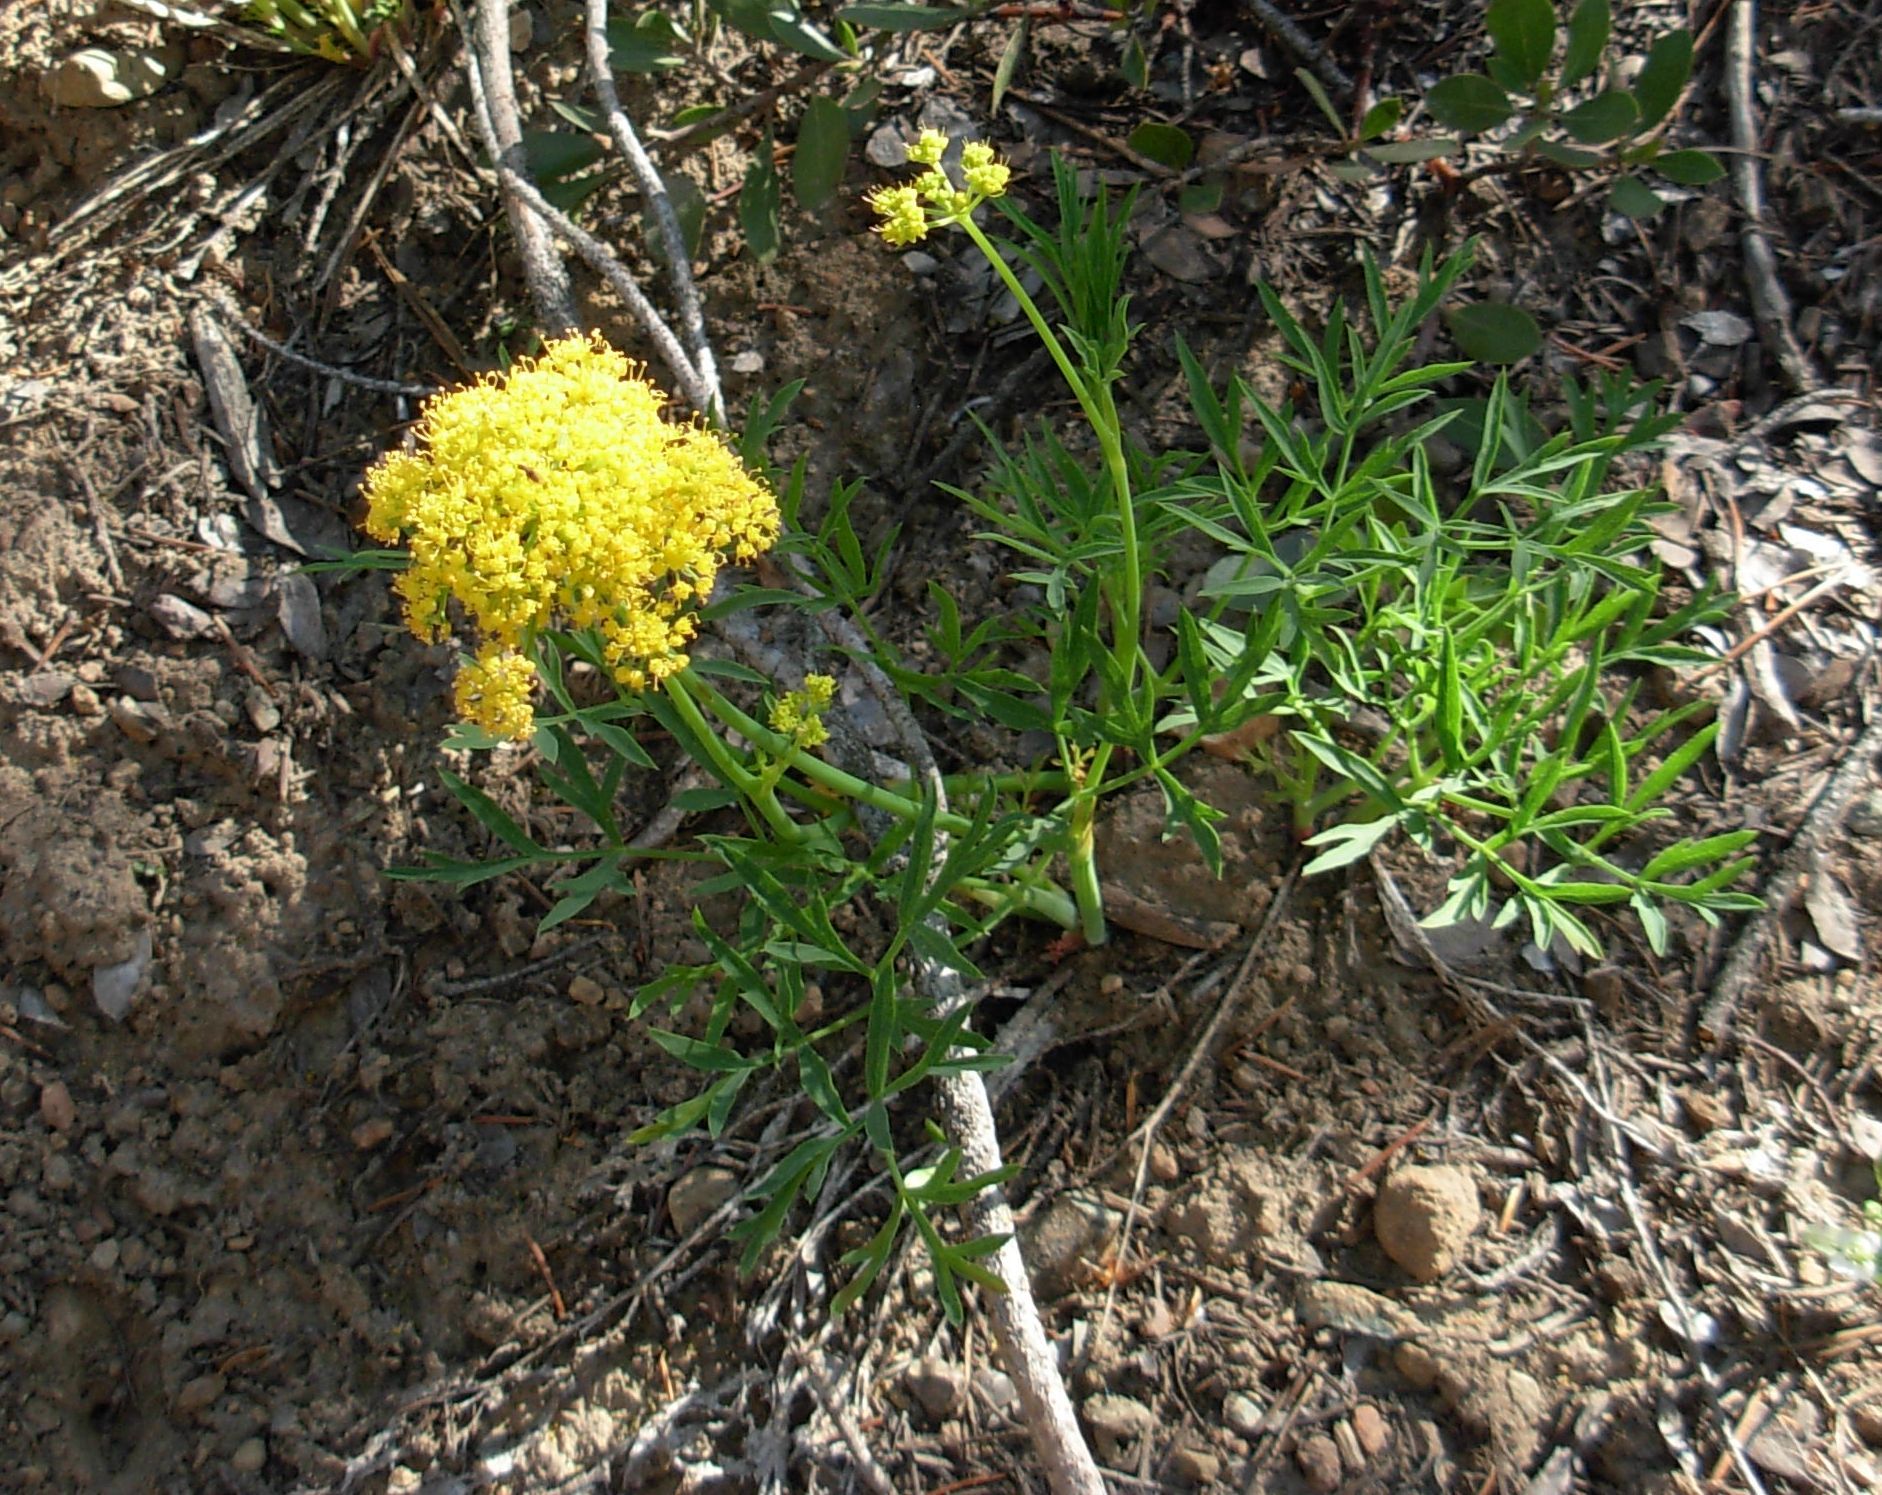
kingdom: Plantae
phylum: Tracheophyta
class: Magnoliopsida
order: Apiales
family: Apiaceae
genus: Lomatium
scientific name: Lomatium brandegeei
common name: Brandegee's desert-parsley
